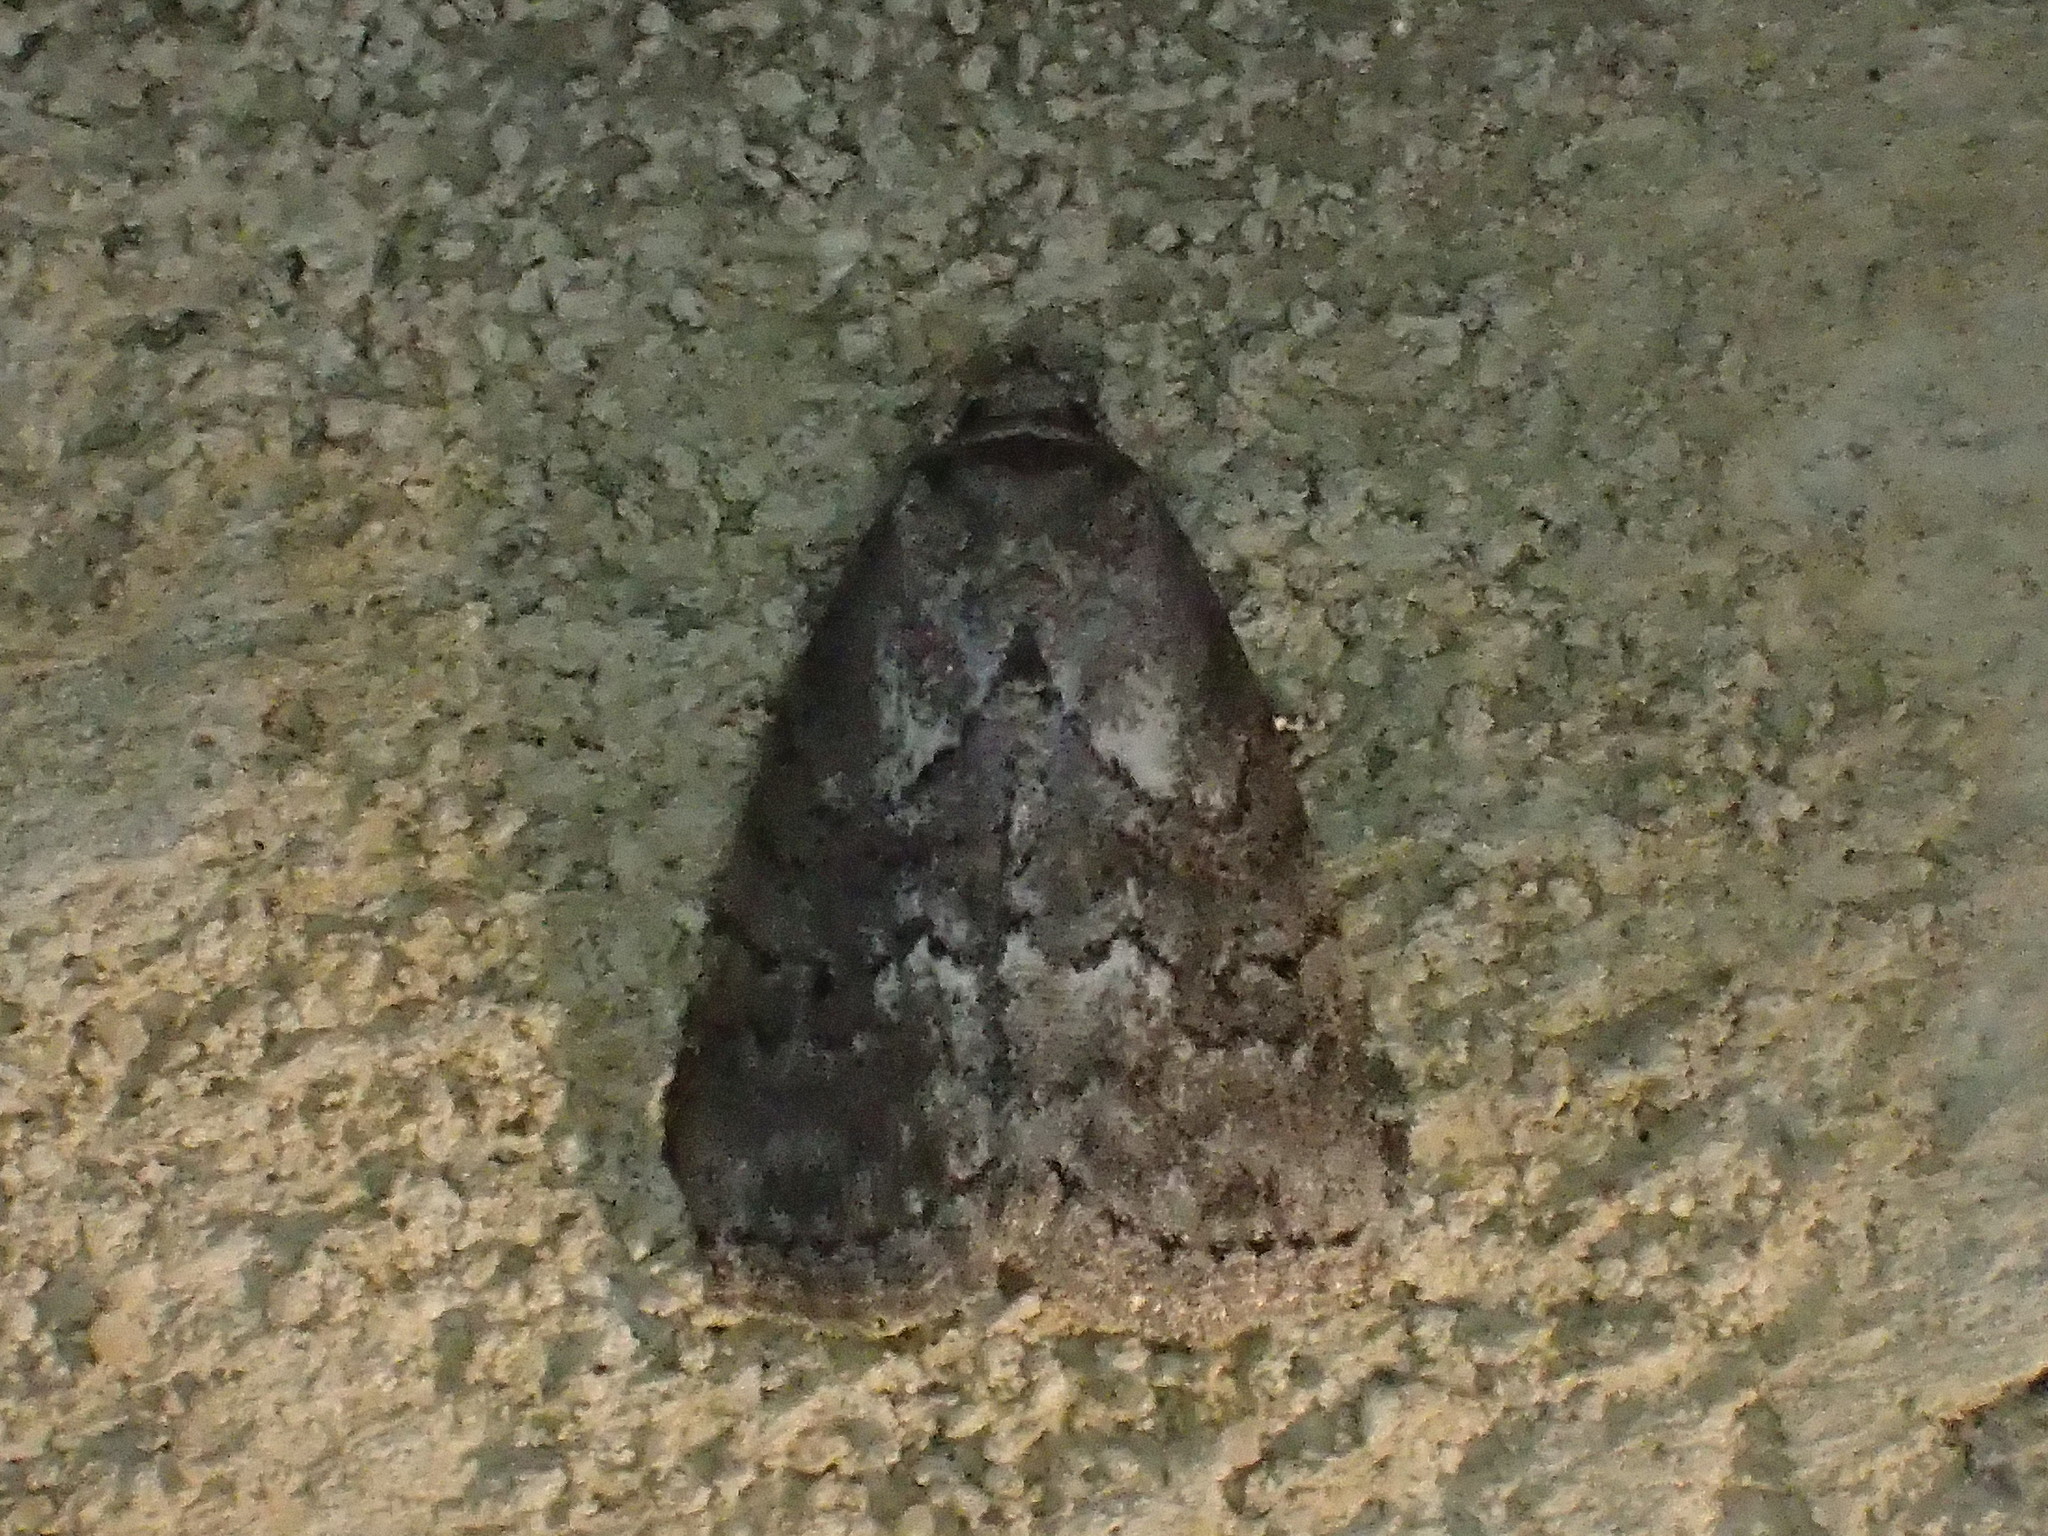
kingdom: Animalia
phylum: Arthropoda
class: Insecta
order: Lepidoptera
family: Erebidae
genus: Hyperstrotia
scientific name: Hyperstrotia nana
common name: White-lined graylet
